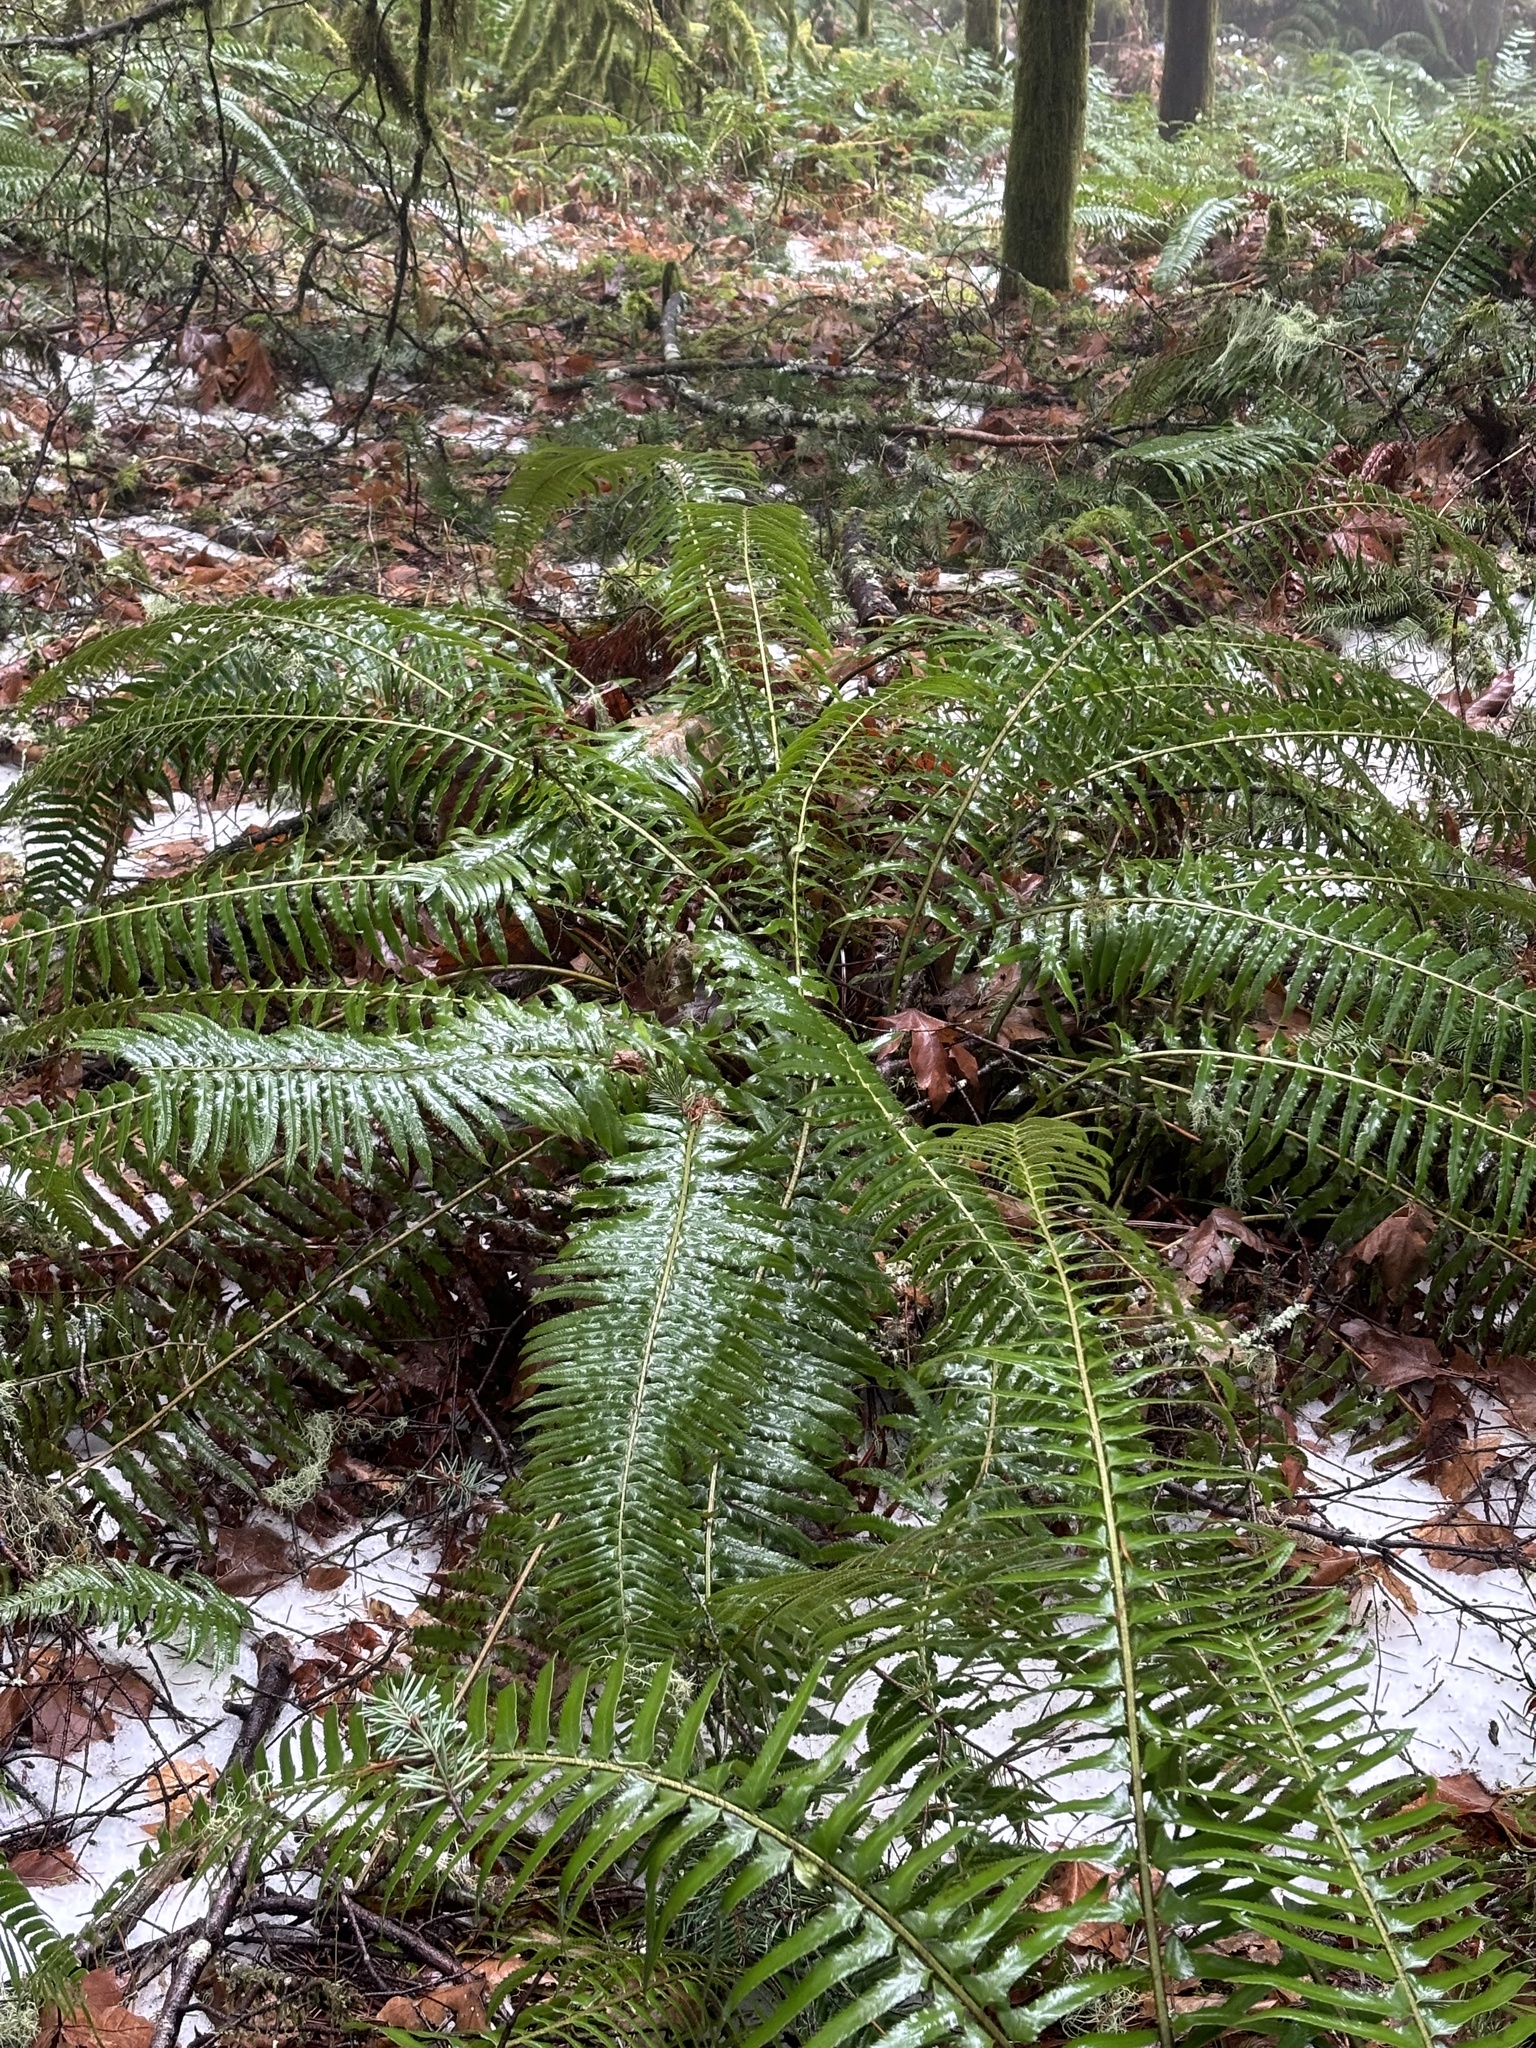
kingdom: Plantae
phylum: Tracheophyta
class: Polypodiopsida
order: Polypodiales
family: Dryopteridaceae
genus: Polystichum
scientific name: Polystichum munitum
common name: Western sword-fern
